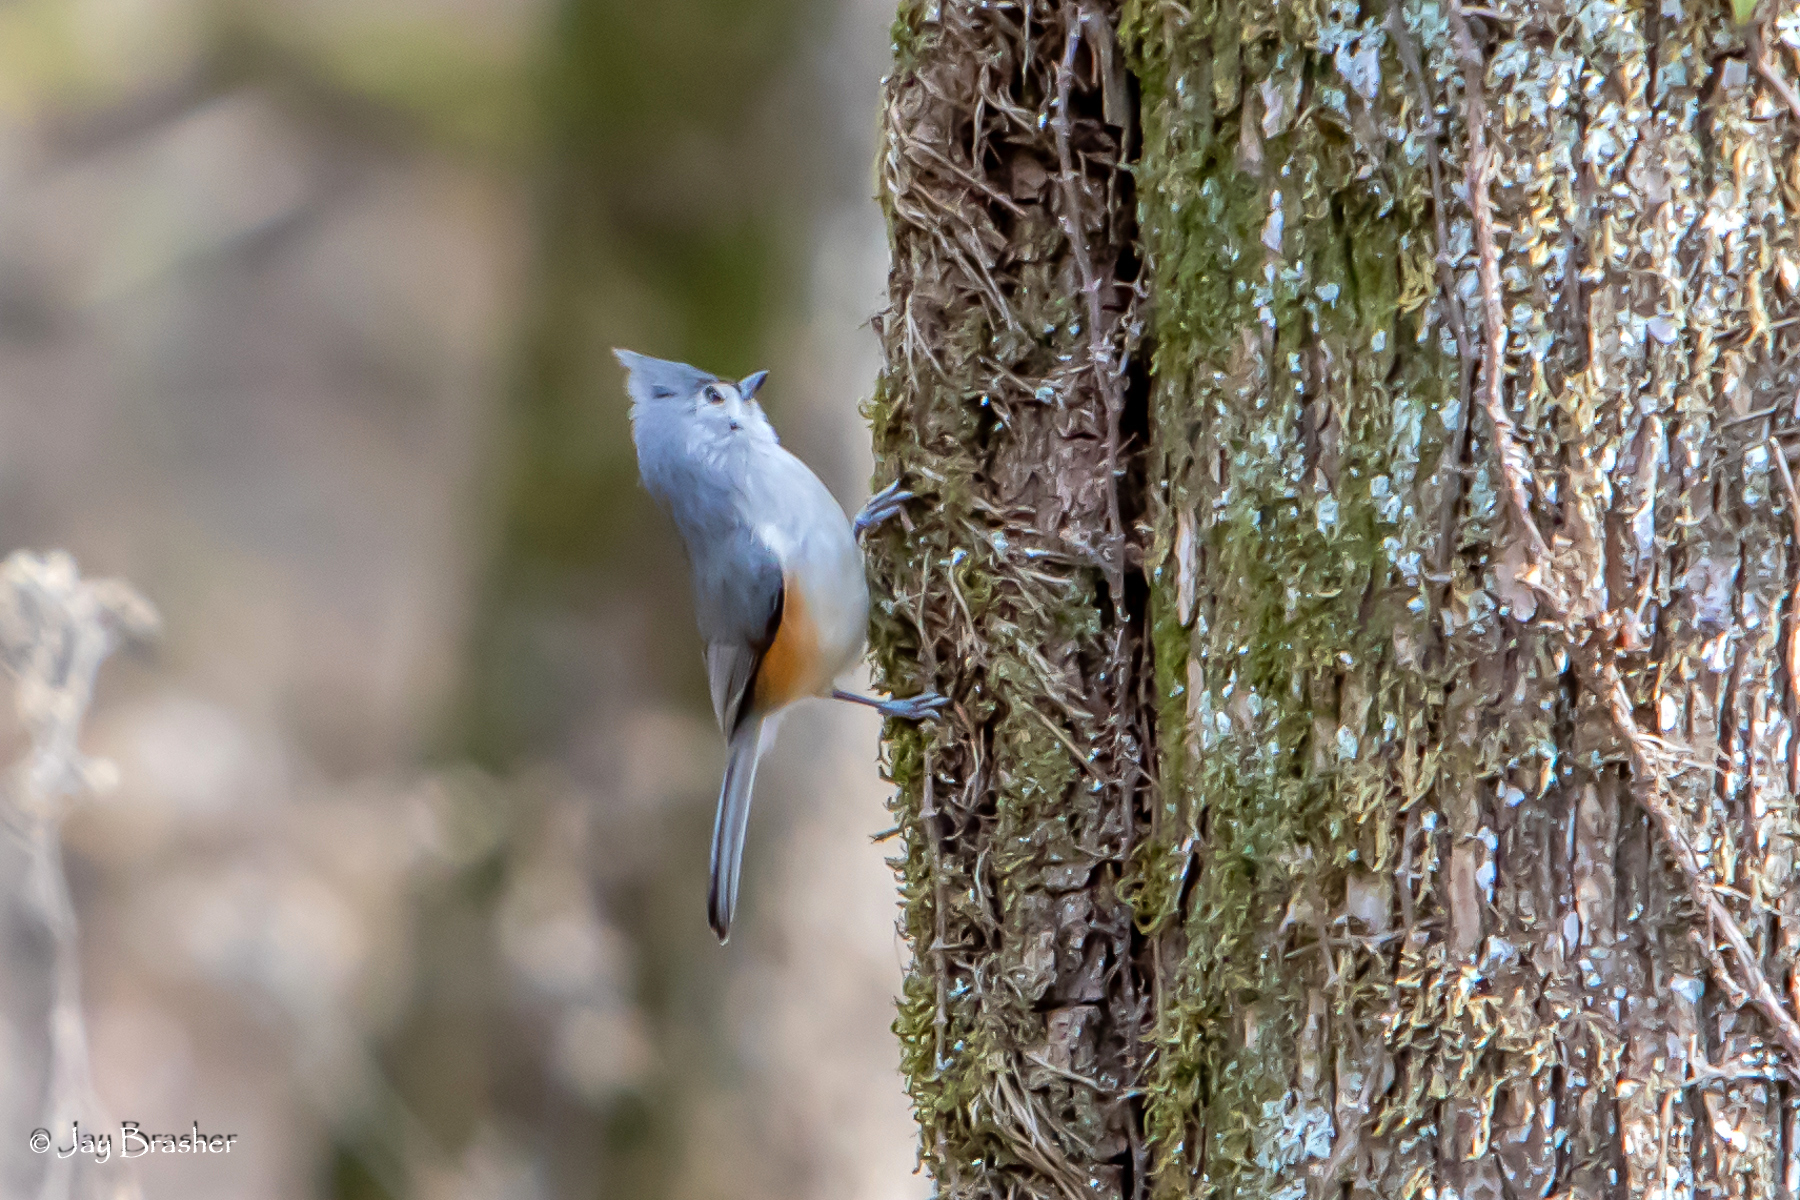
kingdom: Animalia
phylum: Chordata
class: Aves
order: Passeriformes
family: Paridae
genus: Baeolophus
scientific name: Baeolophus bicolor
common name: Tufted titmouse
